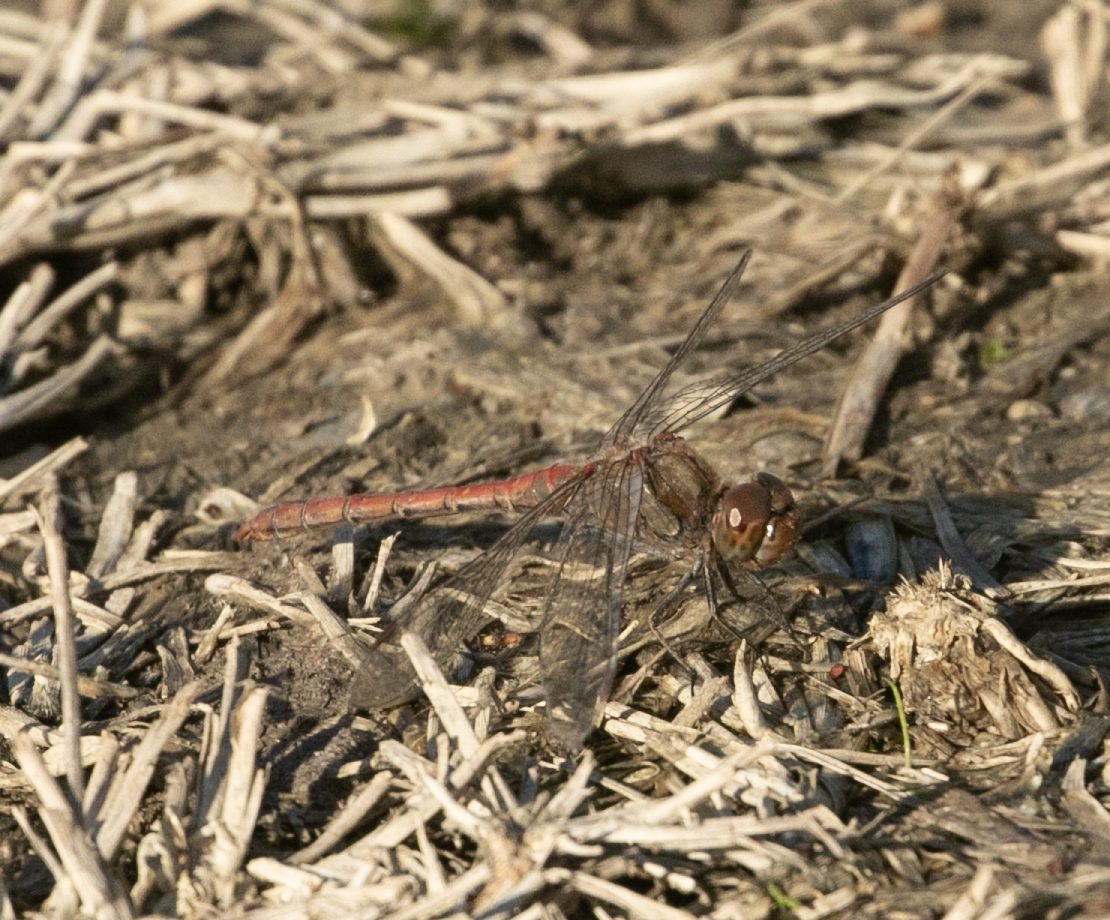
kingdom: Animalia
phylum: Arthropoda
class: Insecta
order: Odonata
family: Libellulidae
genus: Sympetrum
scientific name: Sympetrum striolatum
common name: Common darter
